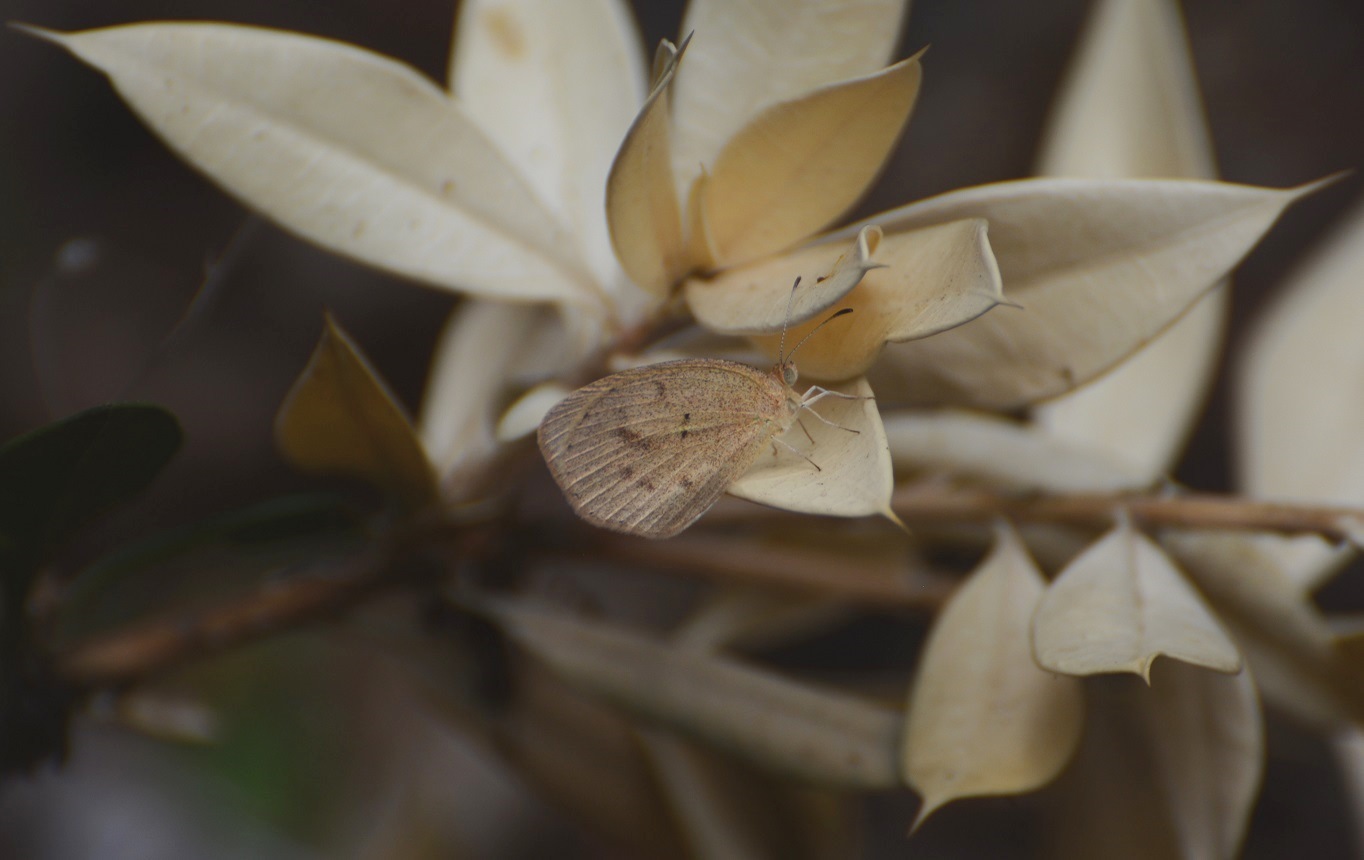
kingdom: Animalia
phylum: Arthropoda
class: Insecta
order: Lepidoptera
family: Pieridae
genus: Eurema
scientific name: Eurema daira
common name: Barred sulphur
